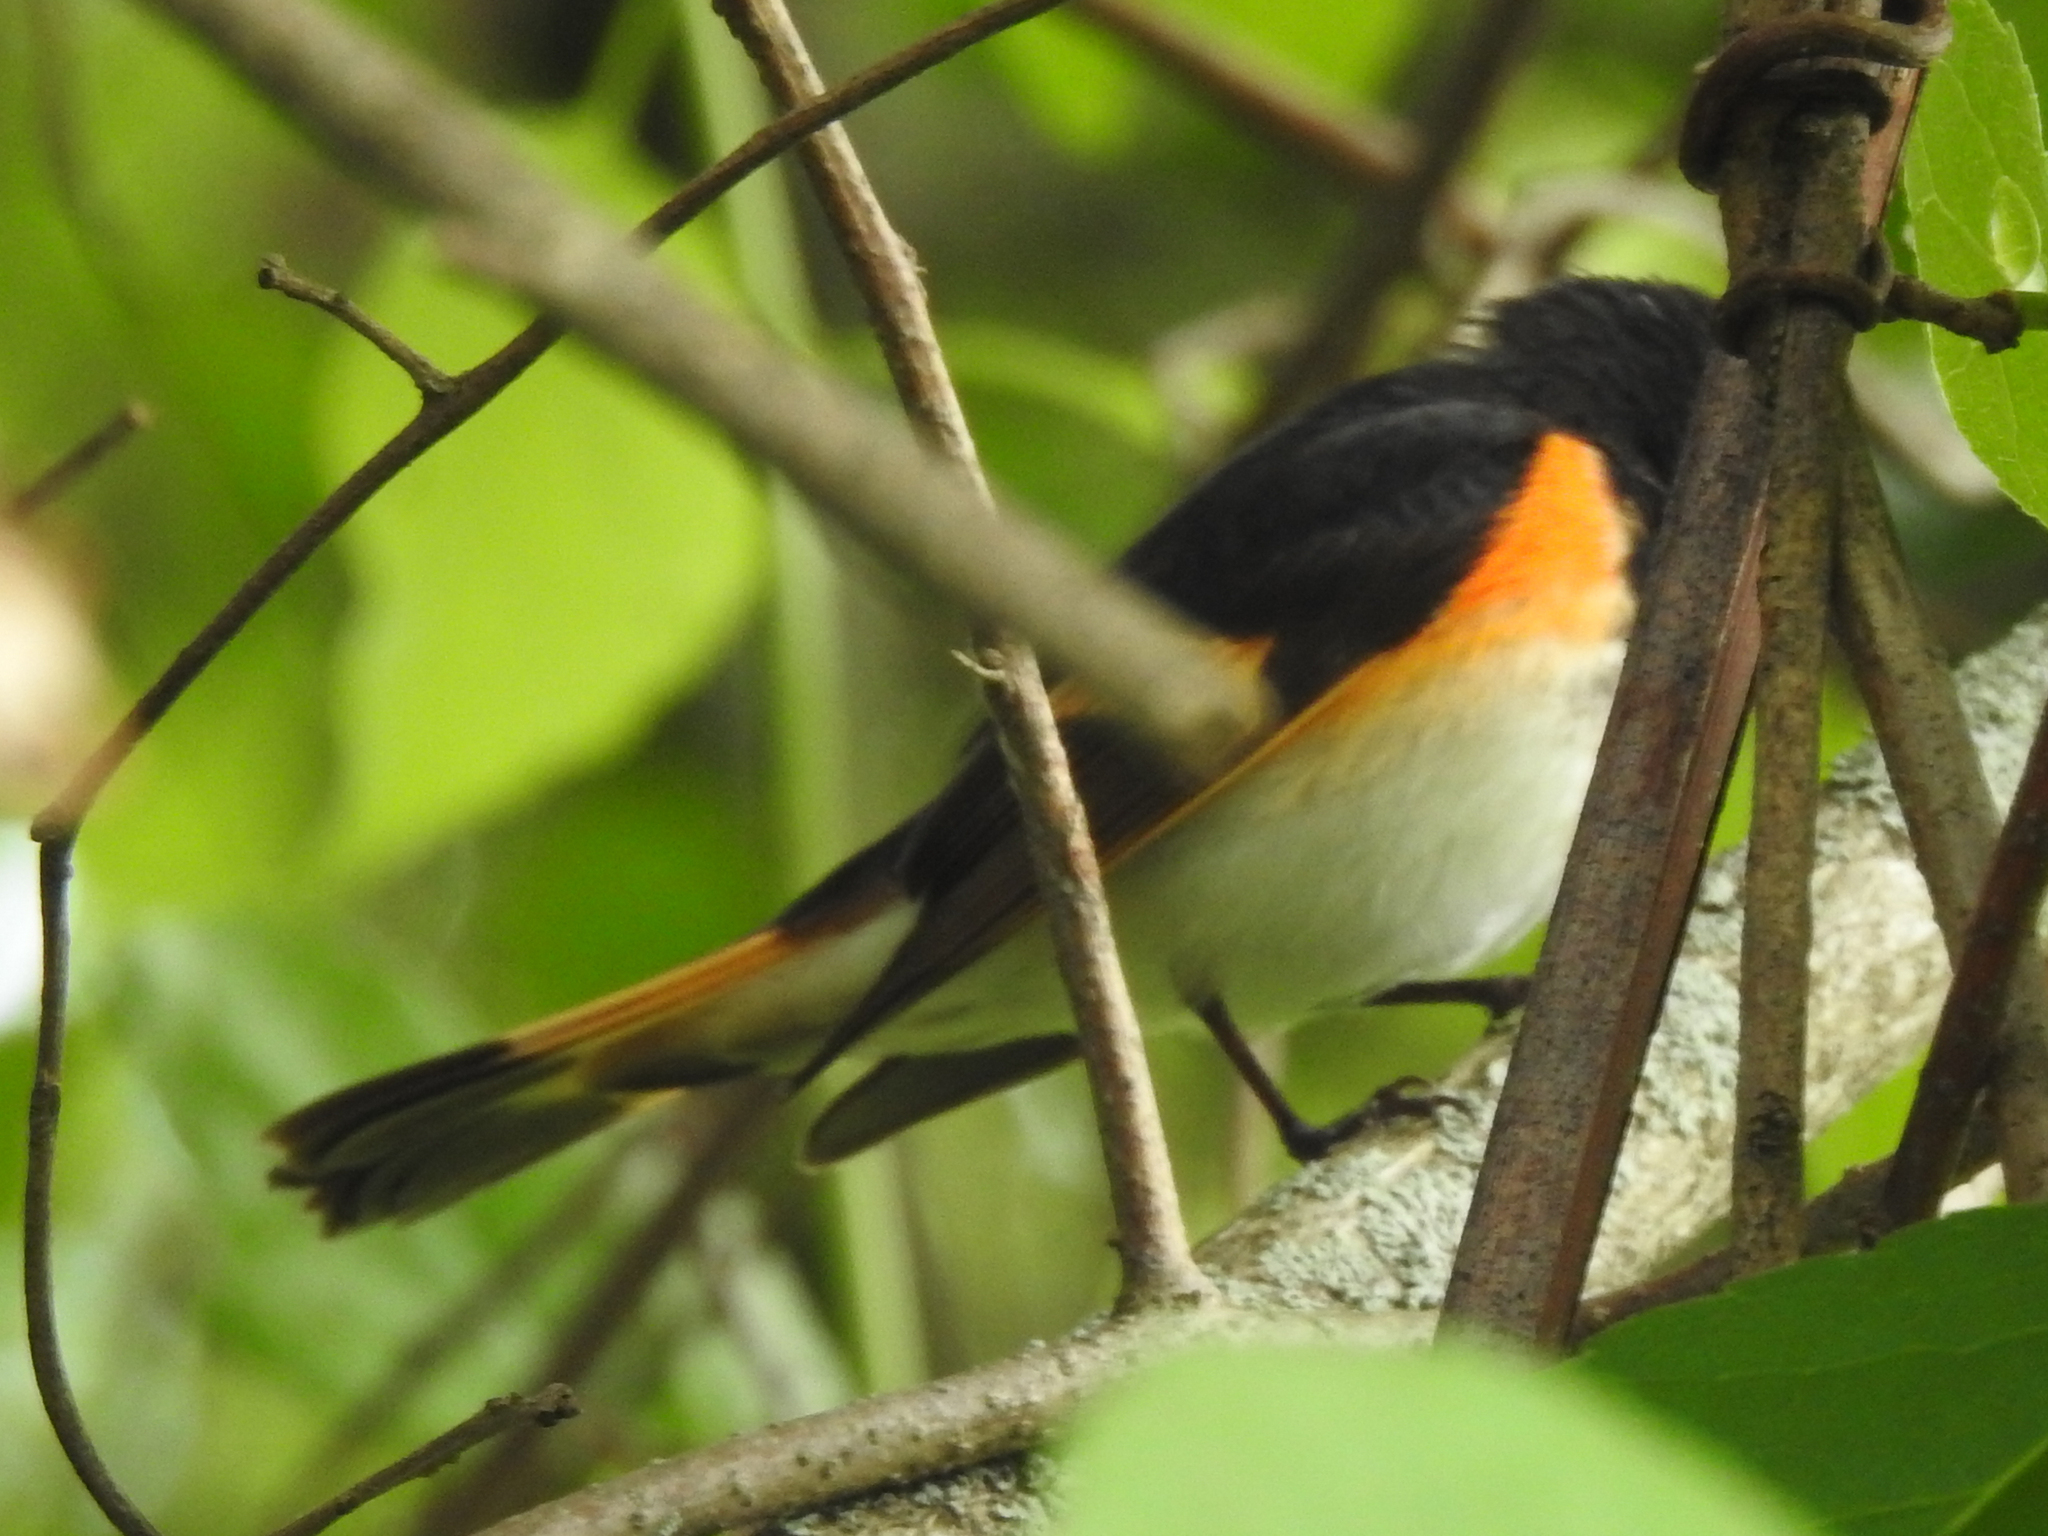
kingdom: Animalia
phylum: Chordata
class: Aves
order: Passeriformes
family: Parulidae
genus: Setophaga
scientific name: Setophaga ruticilla
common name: American redstart
